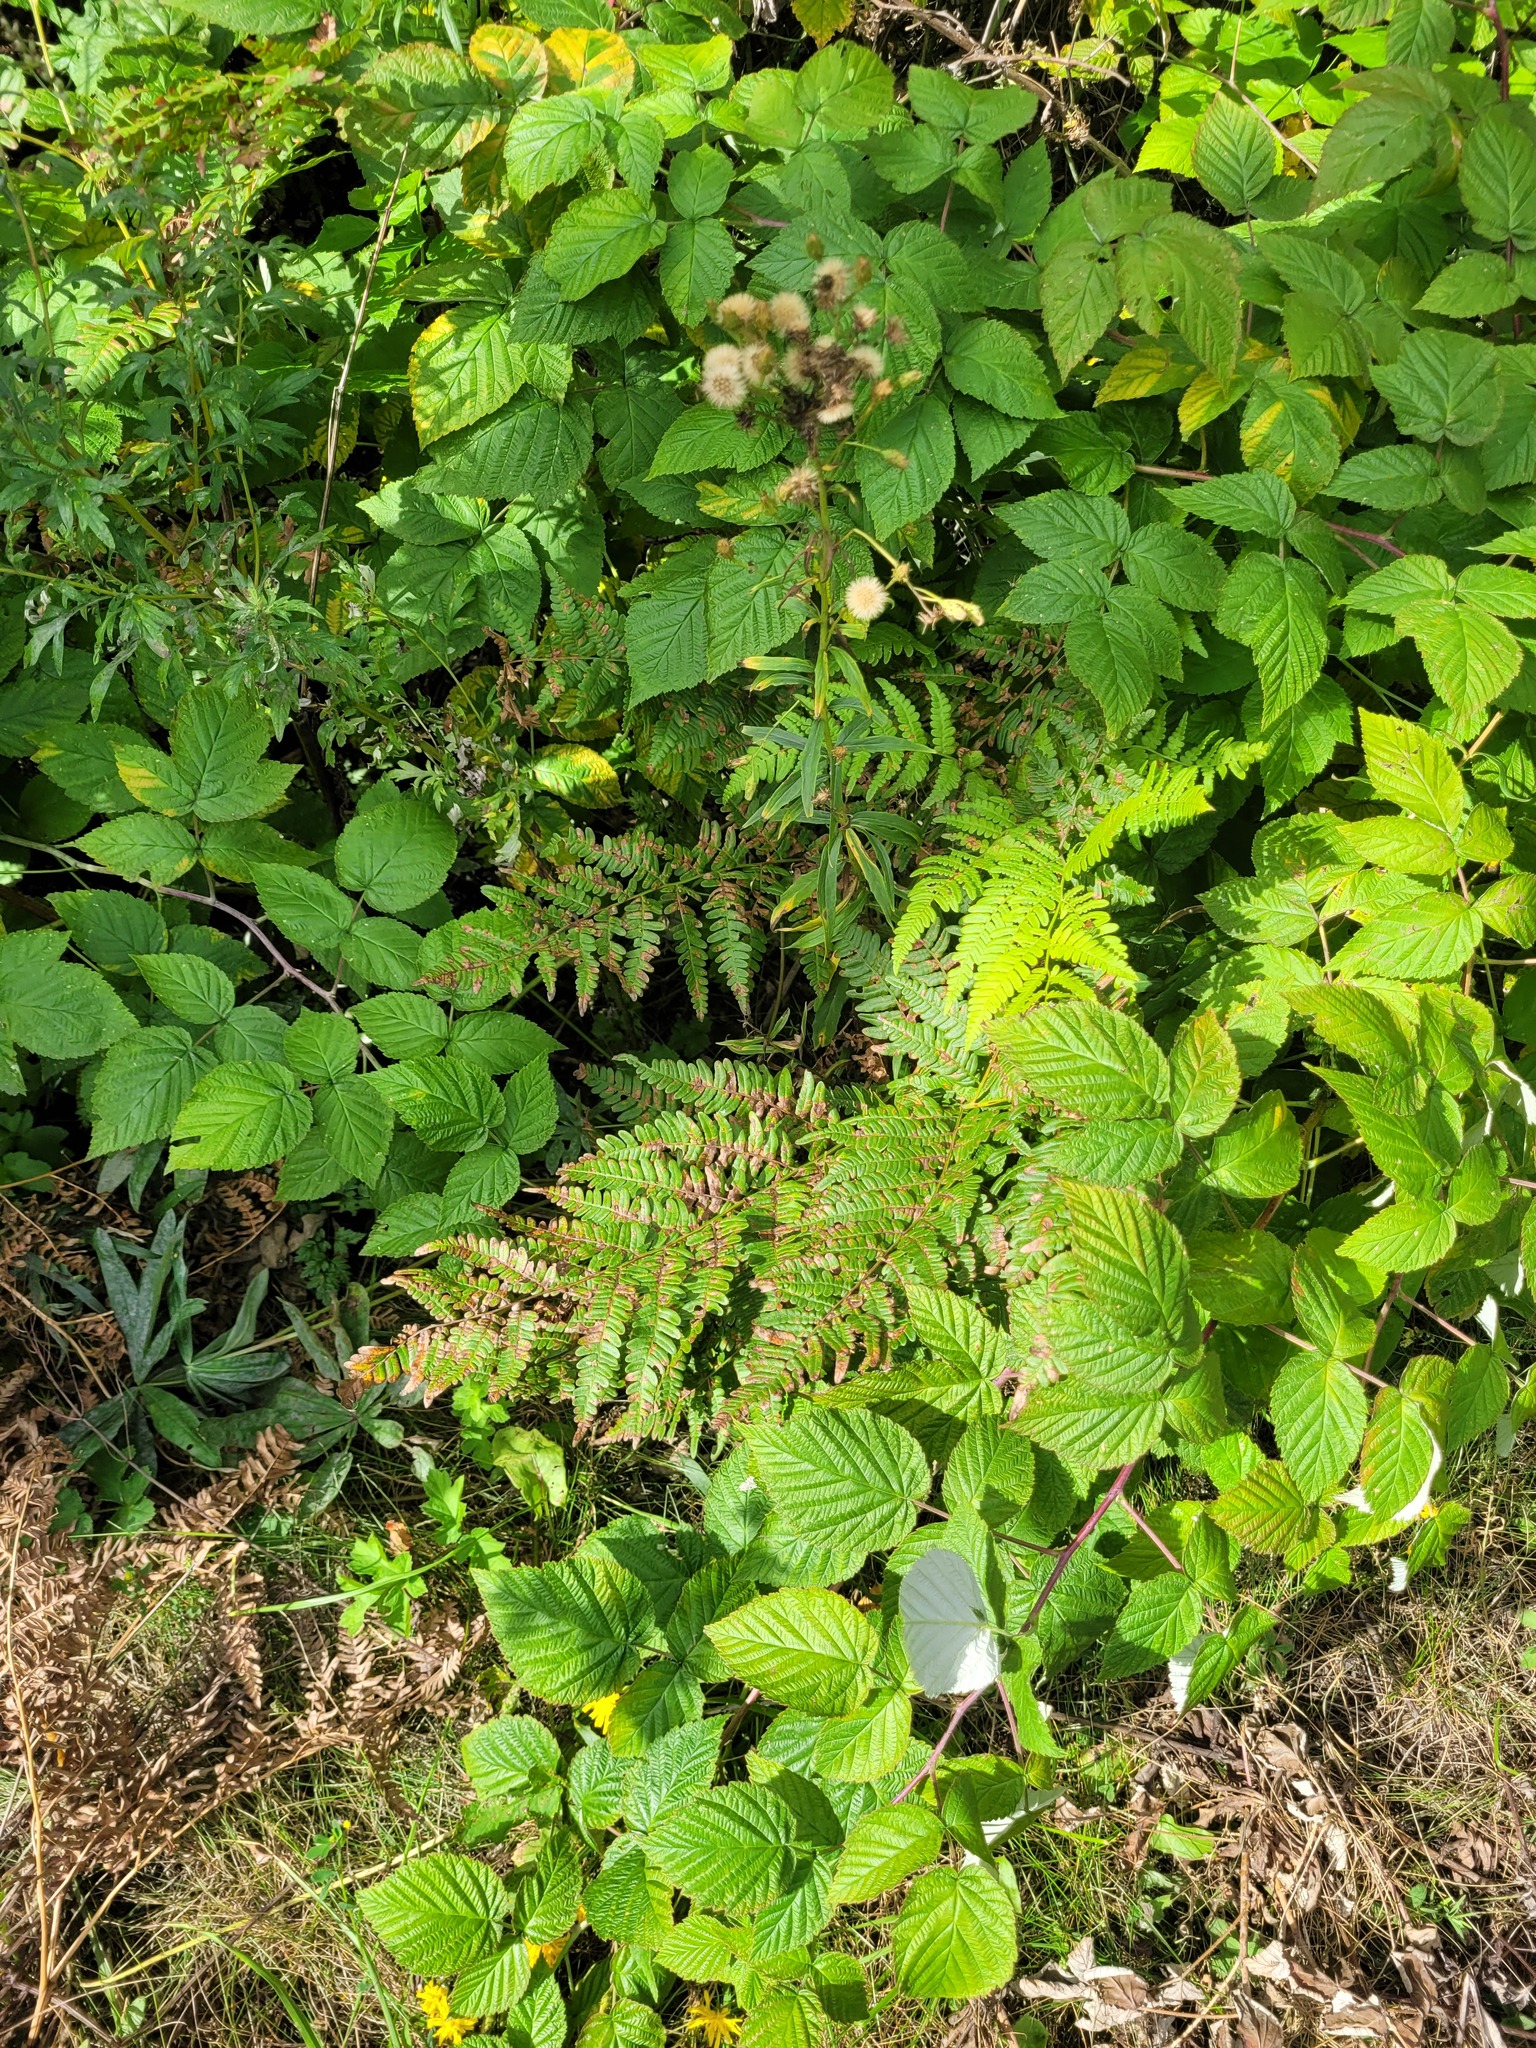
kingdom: Plantae
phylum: Tracheophyta
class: Polypodiopsida
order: Polypodiales
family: Dennstaedtiaceae
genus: Pteridium
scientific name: Pteridium aquilinum
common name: Bracken
